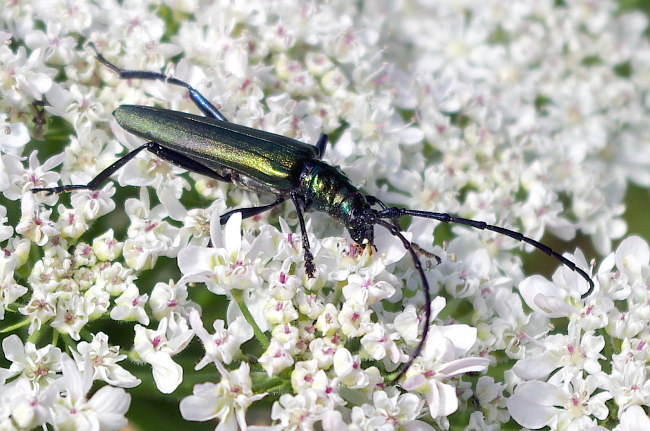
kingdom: Animalia
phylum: Arthropoda
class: Insecta
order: Coleoptera
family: Cerambycidae
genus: Aromia
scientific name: Aromia moschata
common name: Musk beetle
